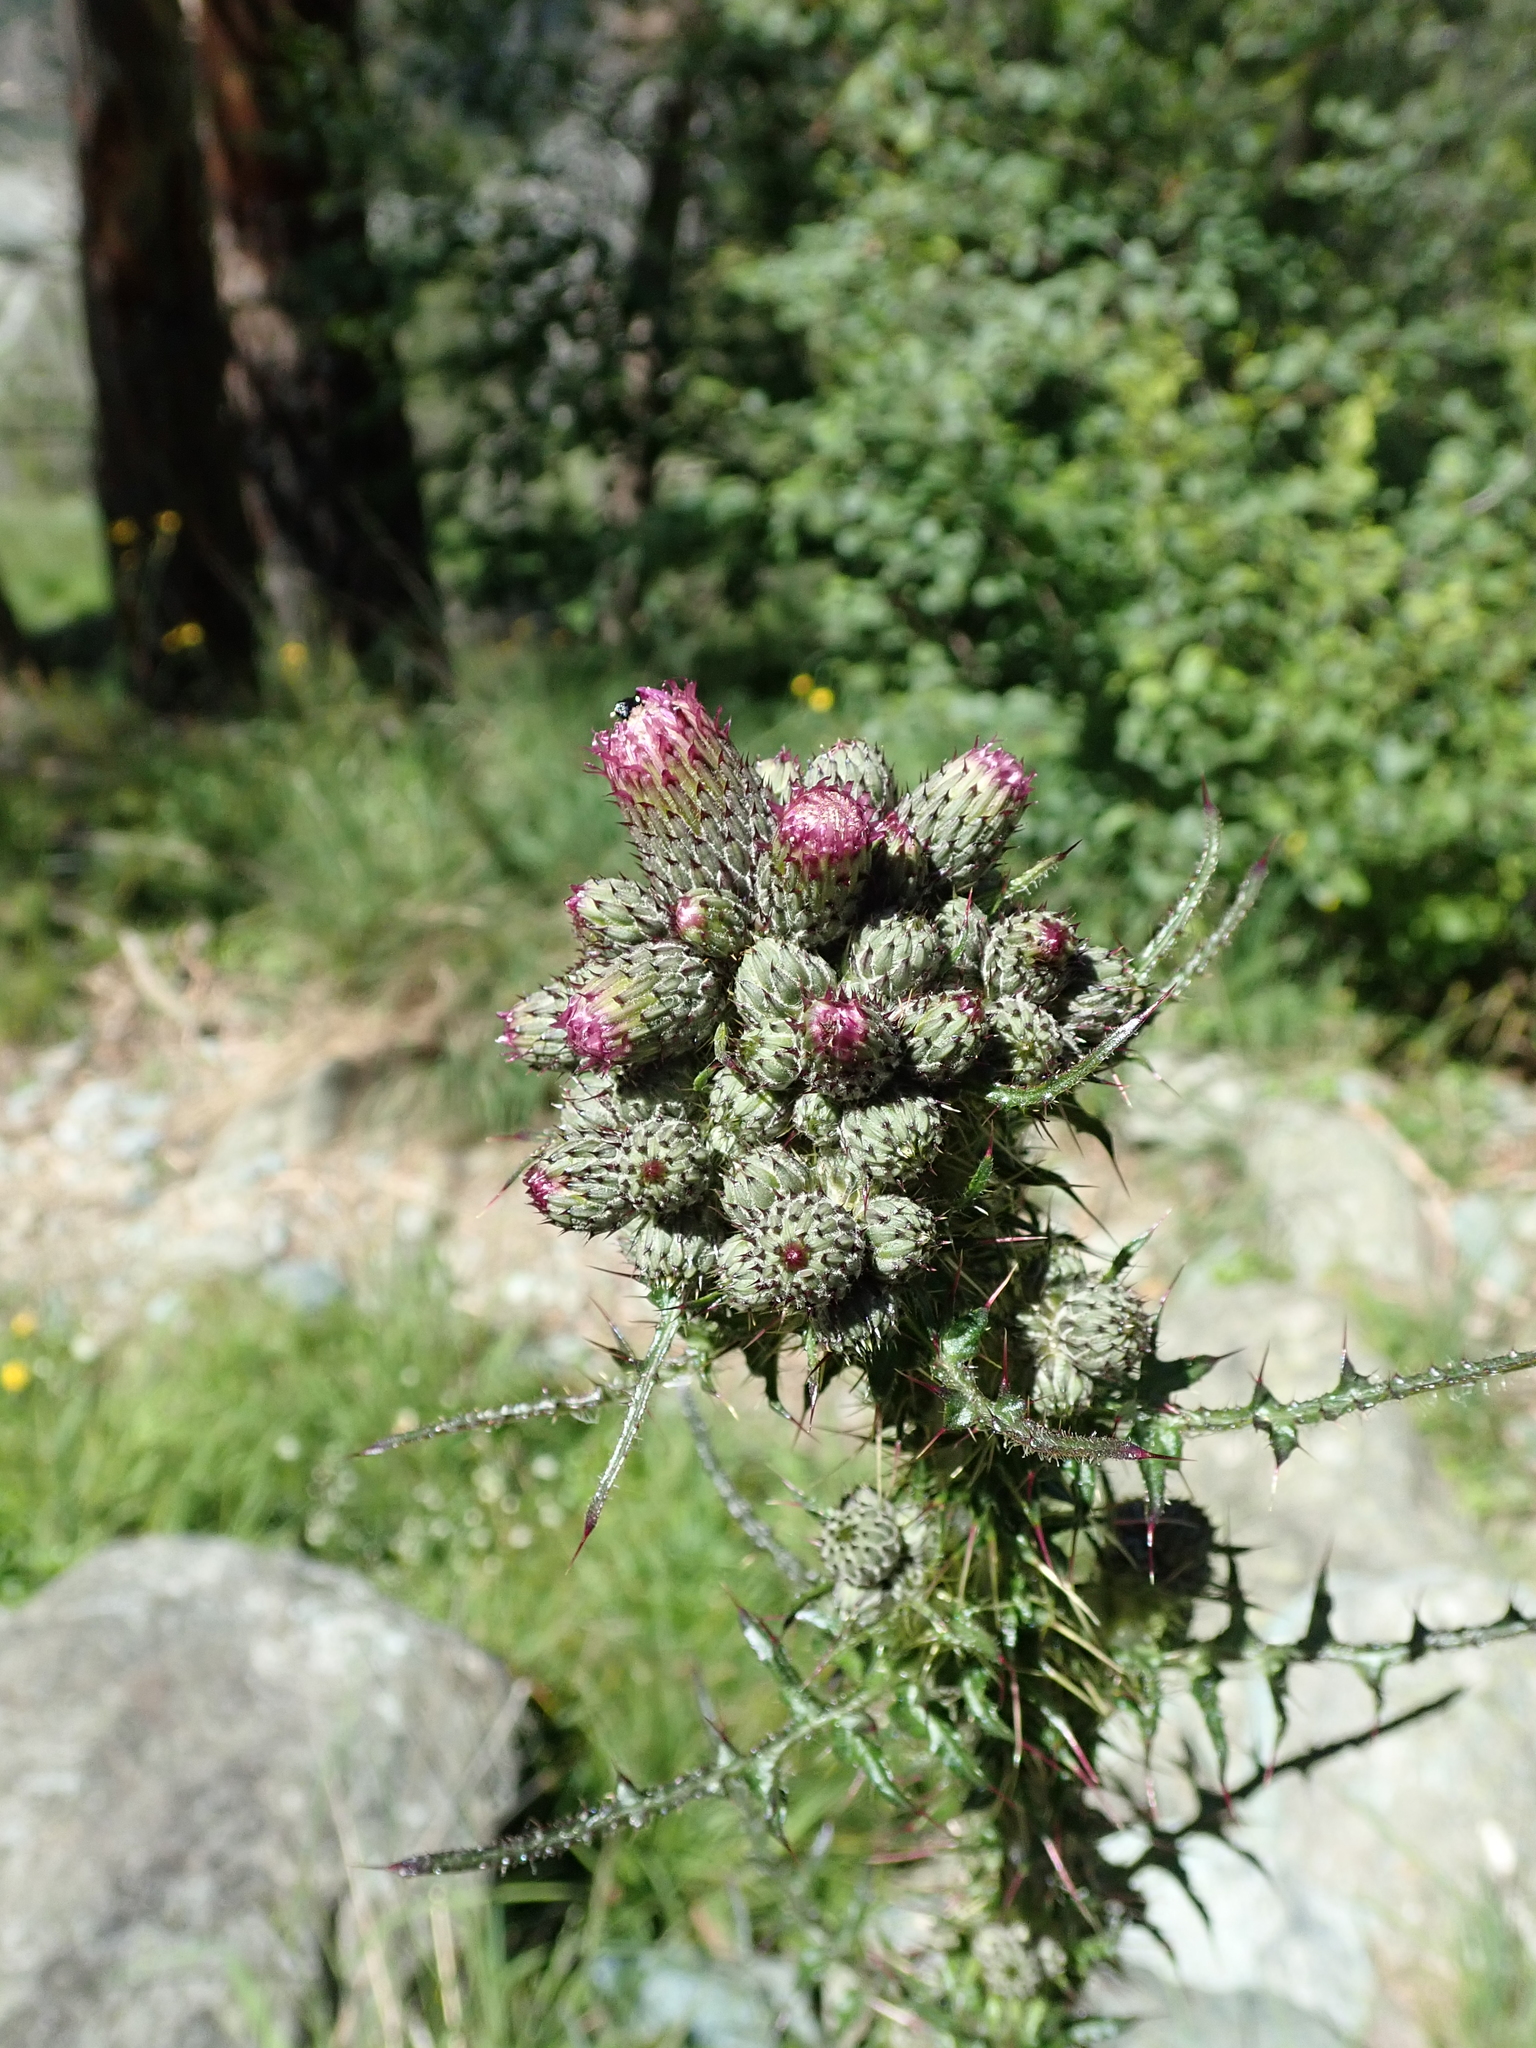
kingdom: Plantae
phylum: Tracheophyta
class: Magnoliopsida
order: Asterales
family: Asteraceae
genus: Cirsium
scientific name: Cirsium palustre
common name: Marsh thistle
